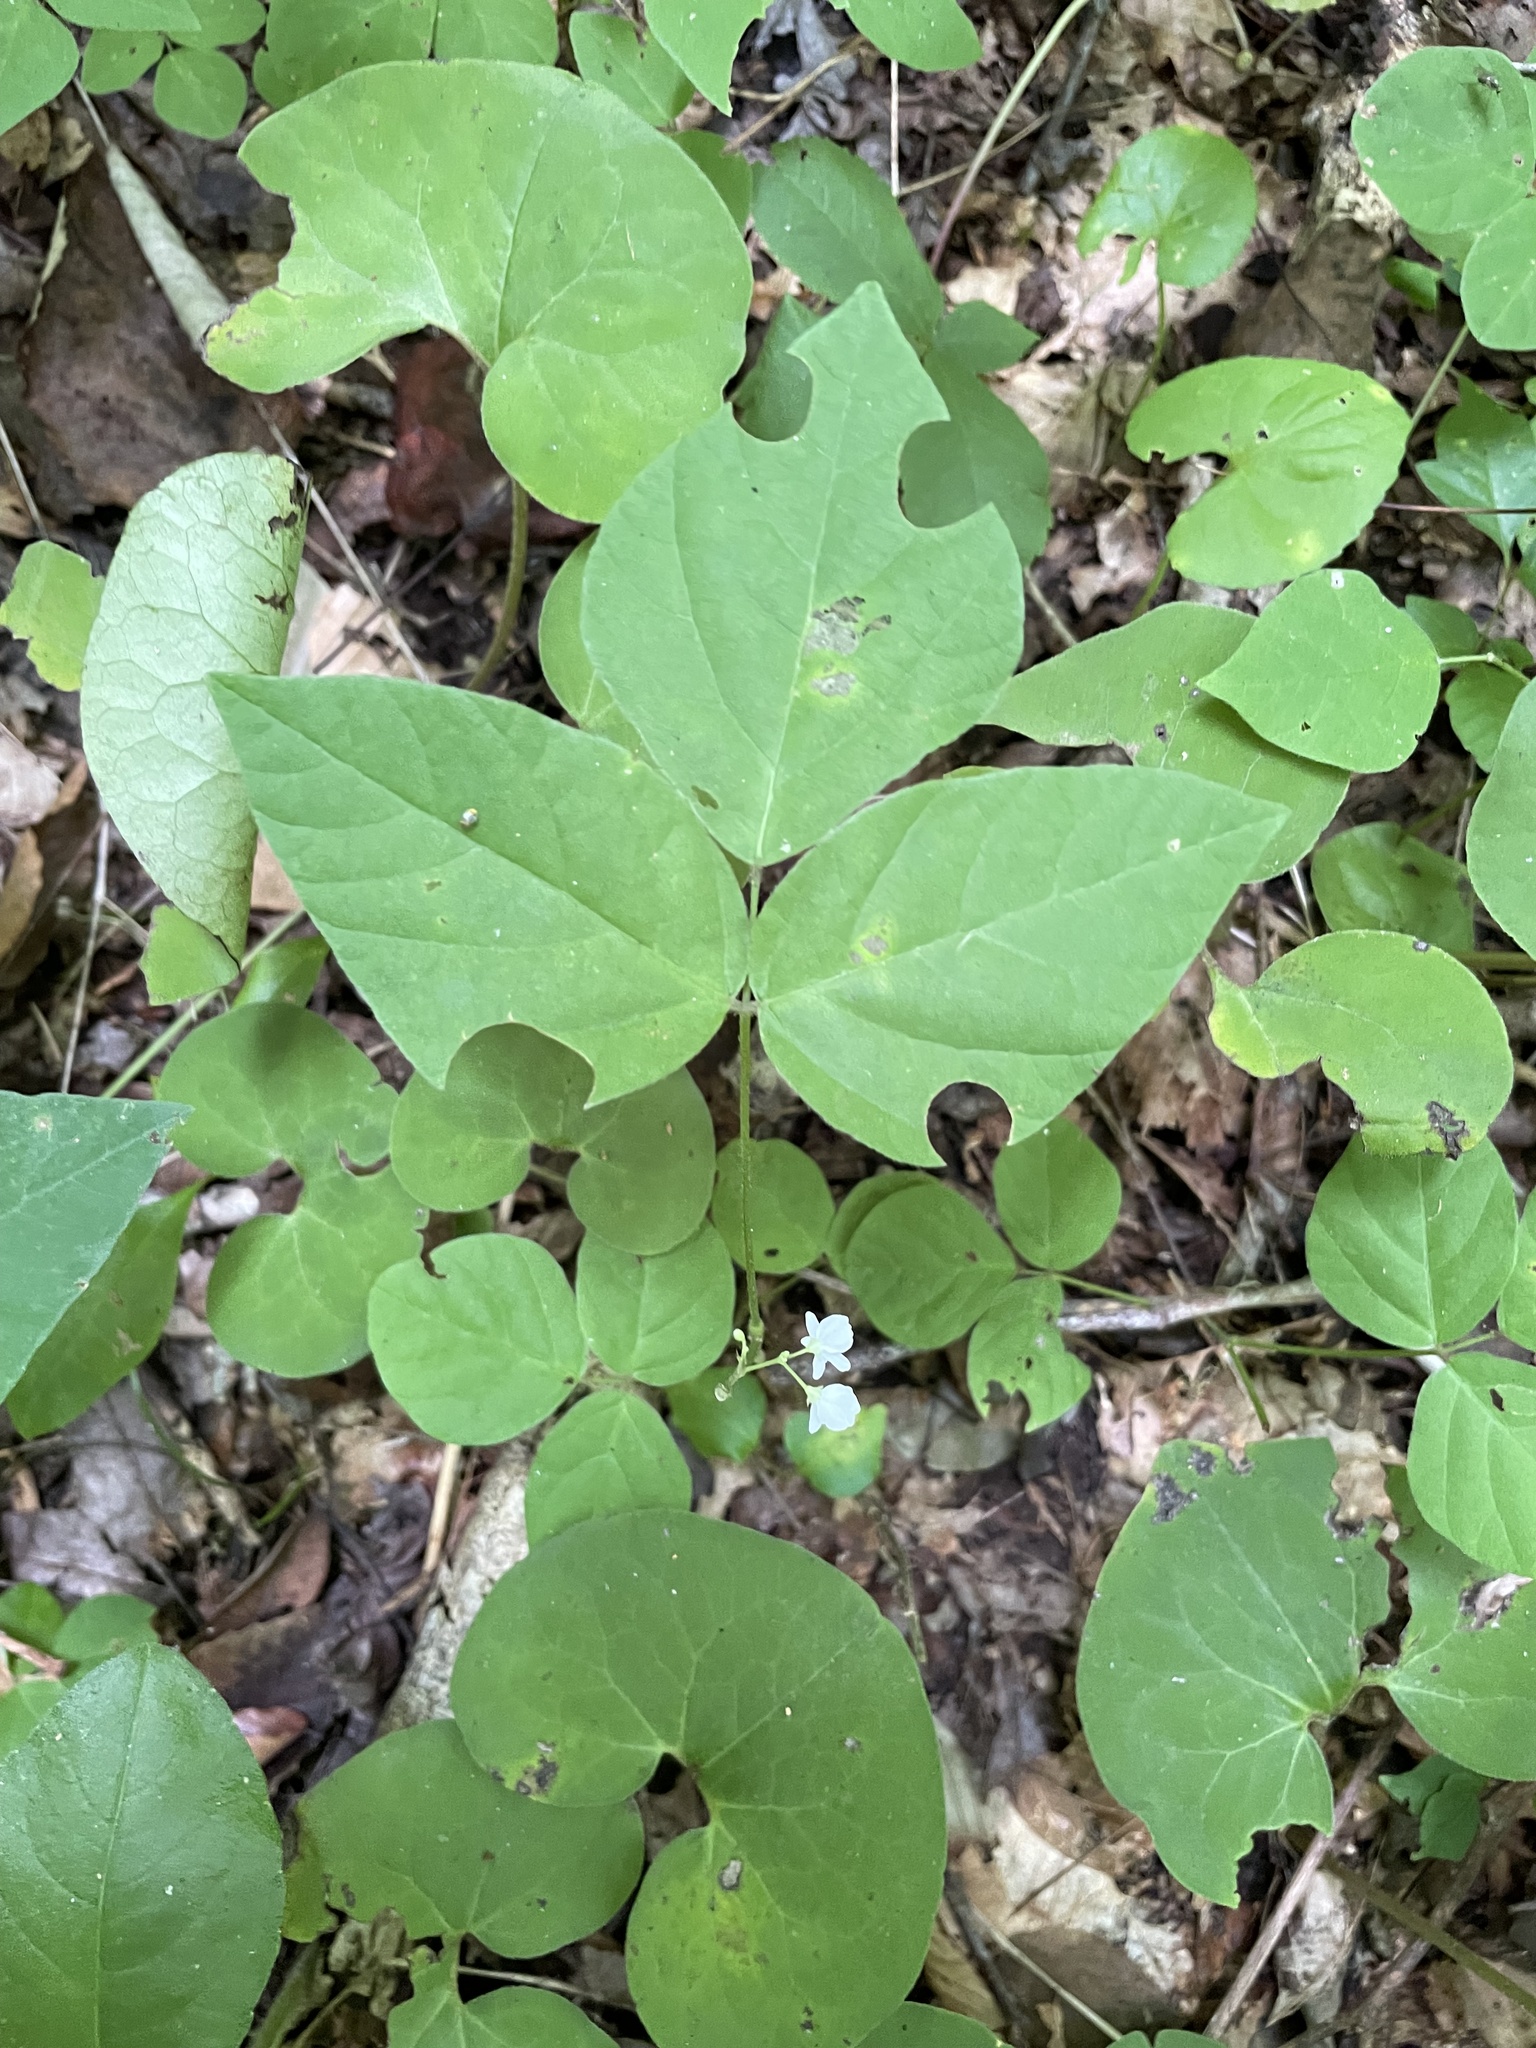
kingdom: Plantae
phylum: Tracheophyta
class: Magnoliopsida
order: Fabales
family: Fabaceae
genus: Hylodesmum
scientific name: Hylodesmum pauciflorum
